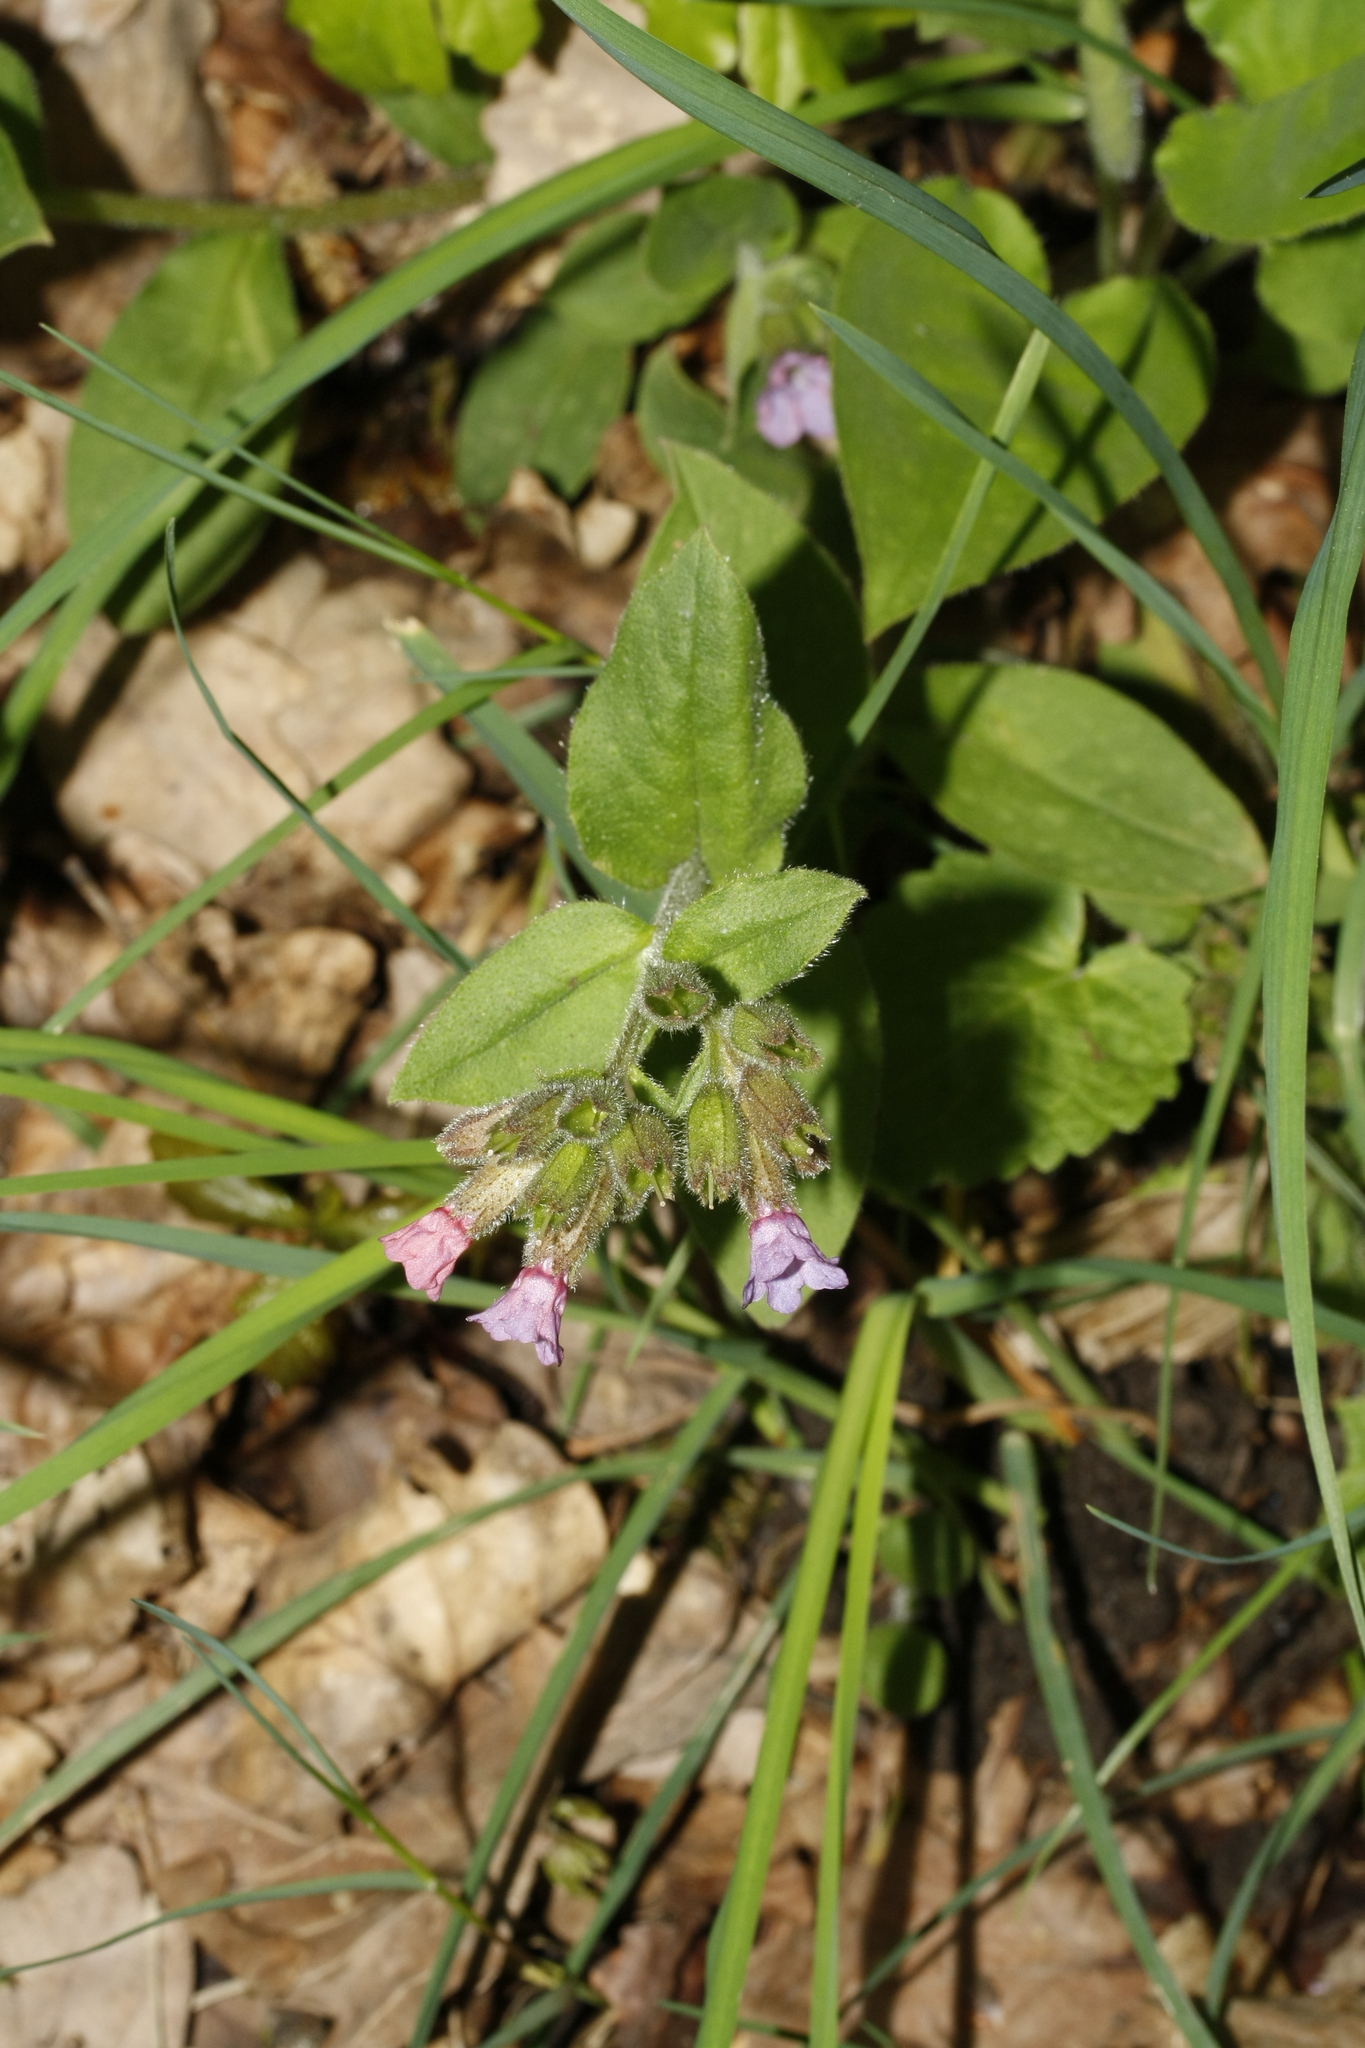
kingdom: Plantae
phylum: Tracheophyta
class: Magnoliopsida
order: Boraginales
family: Boraginaceae
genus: Pulmonaria
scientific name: Pulmonaria obscura
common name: Suffolk lungwort
